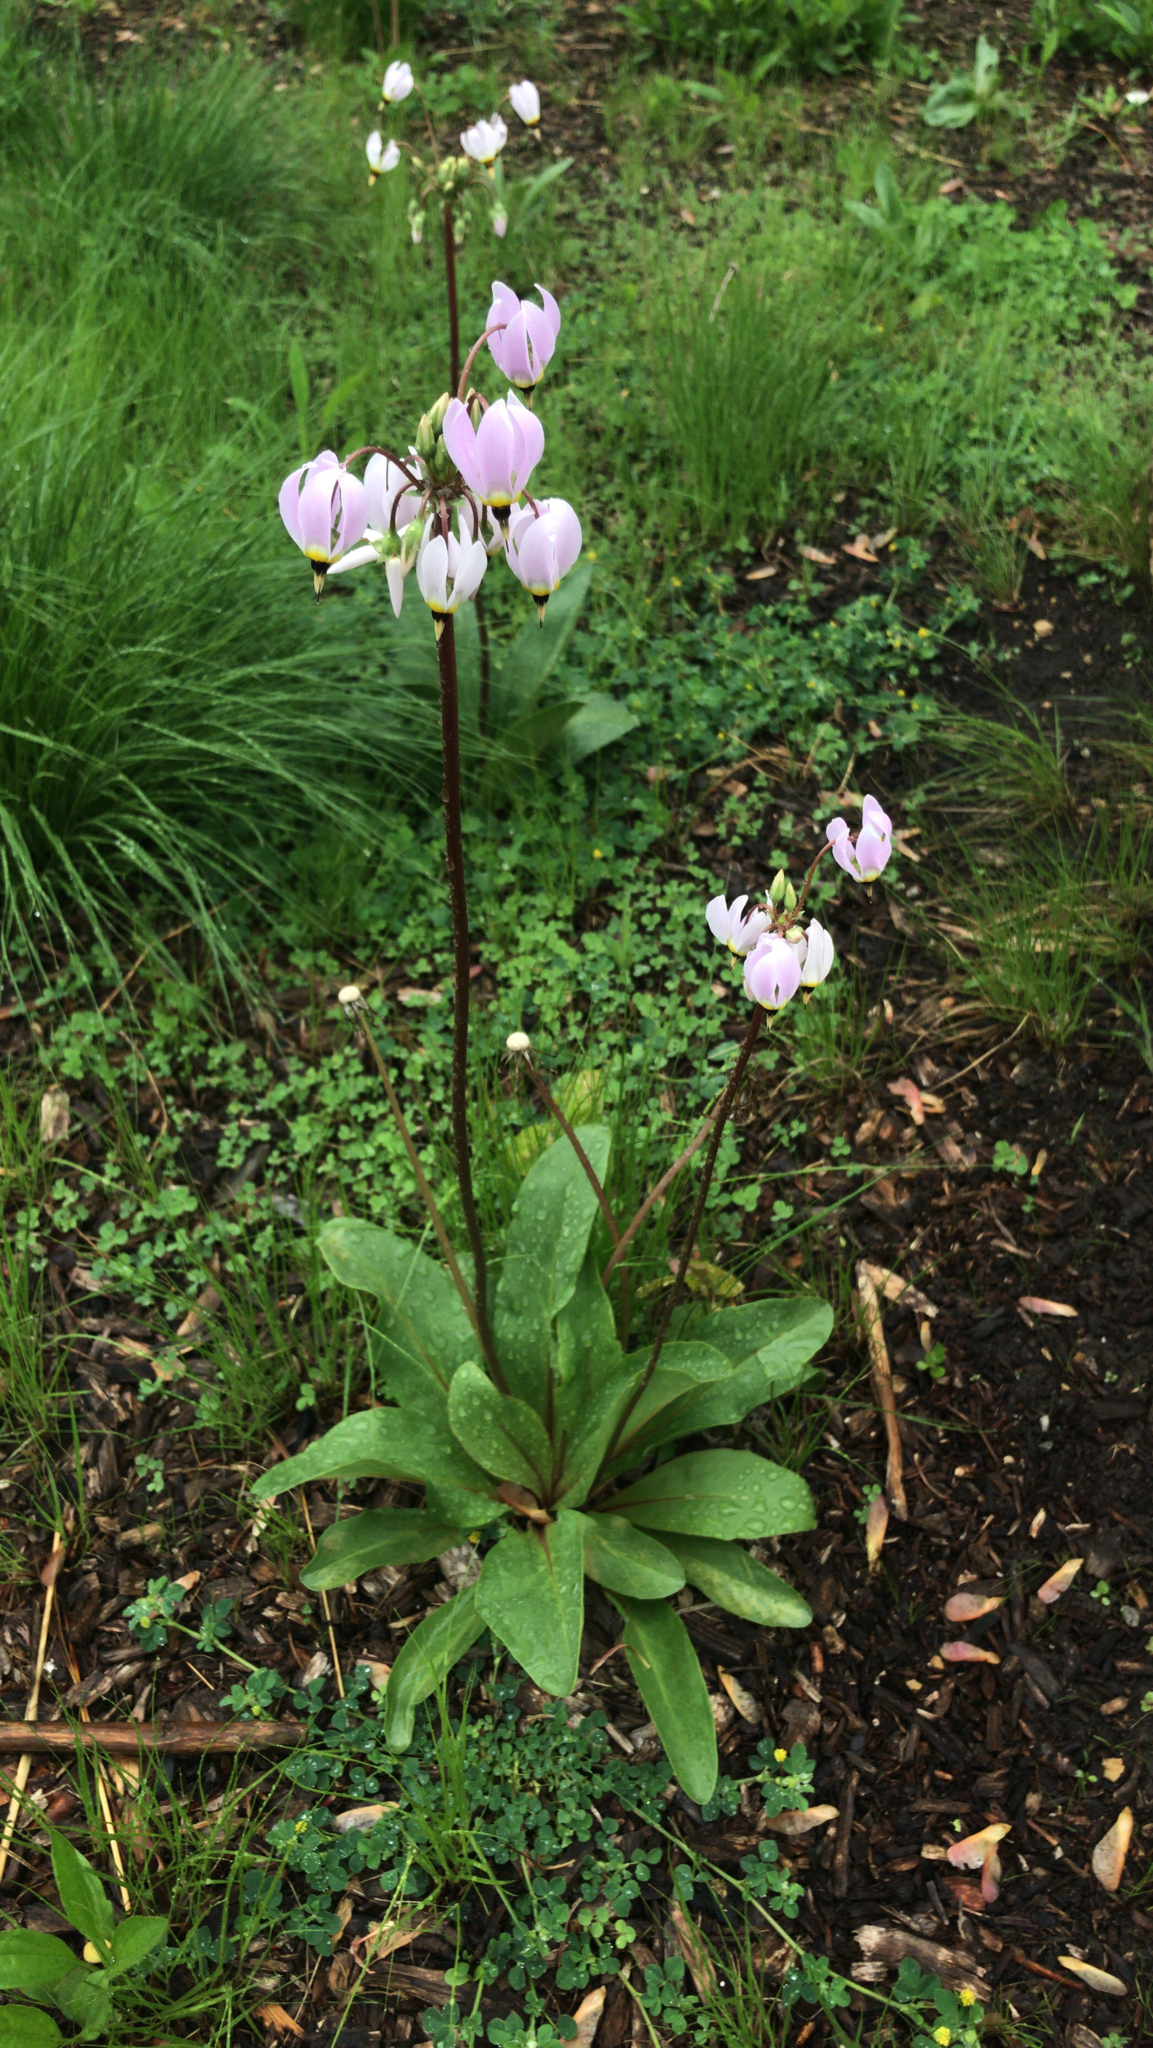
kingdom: Plantae
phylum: Tracheophyta
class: Magnoliopsida
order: Ericales
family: Primulaceae
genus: Dodecatheon
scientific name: Dodecatheon meadia
